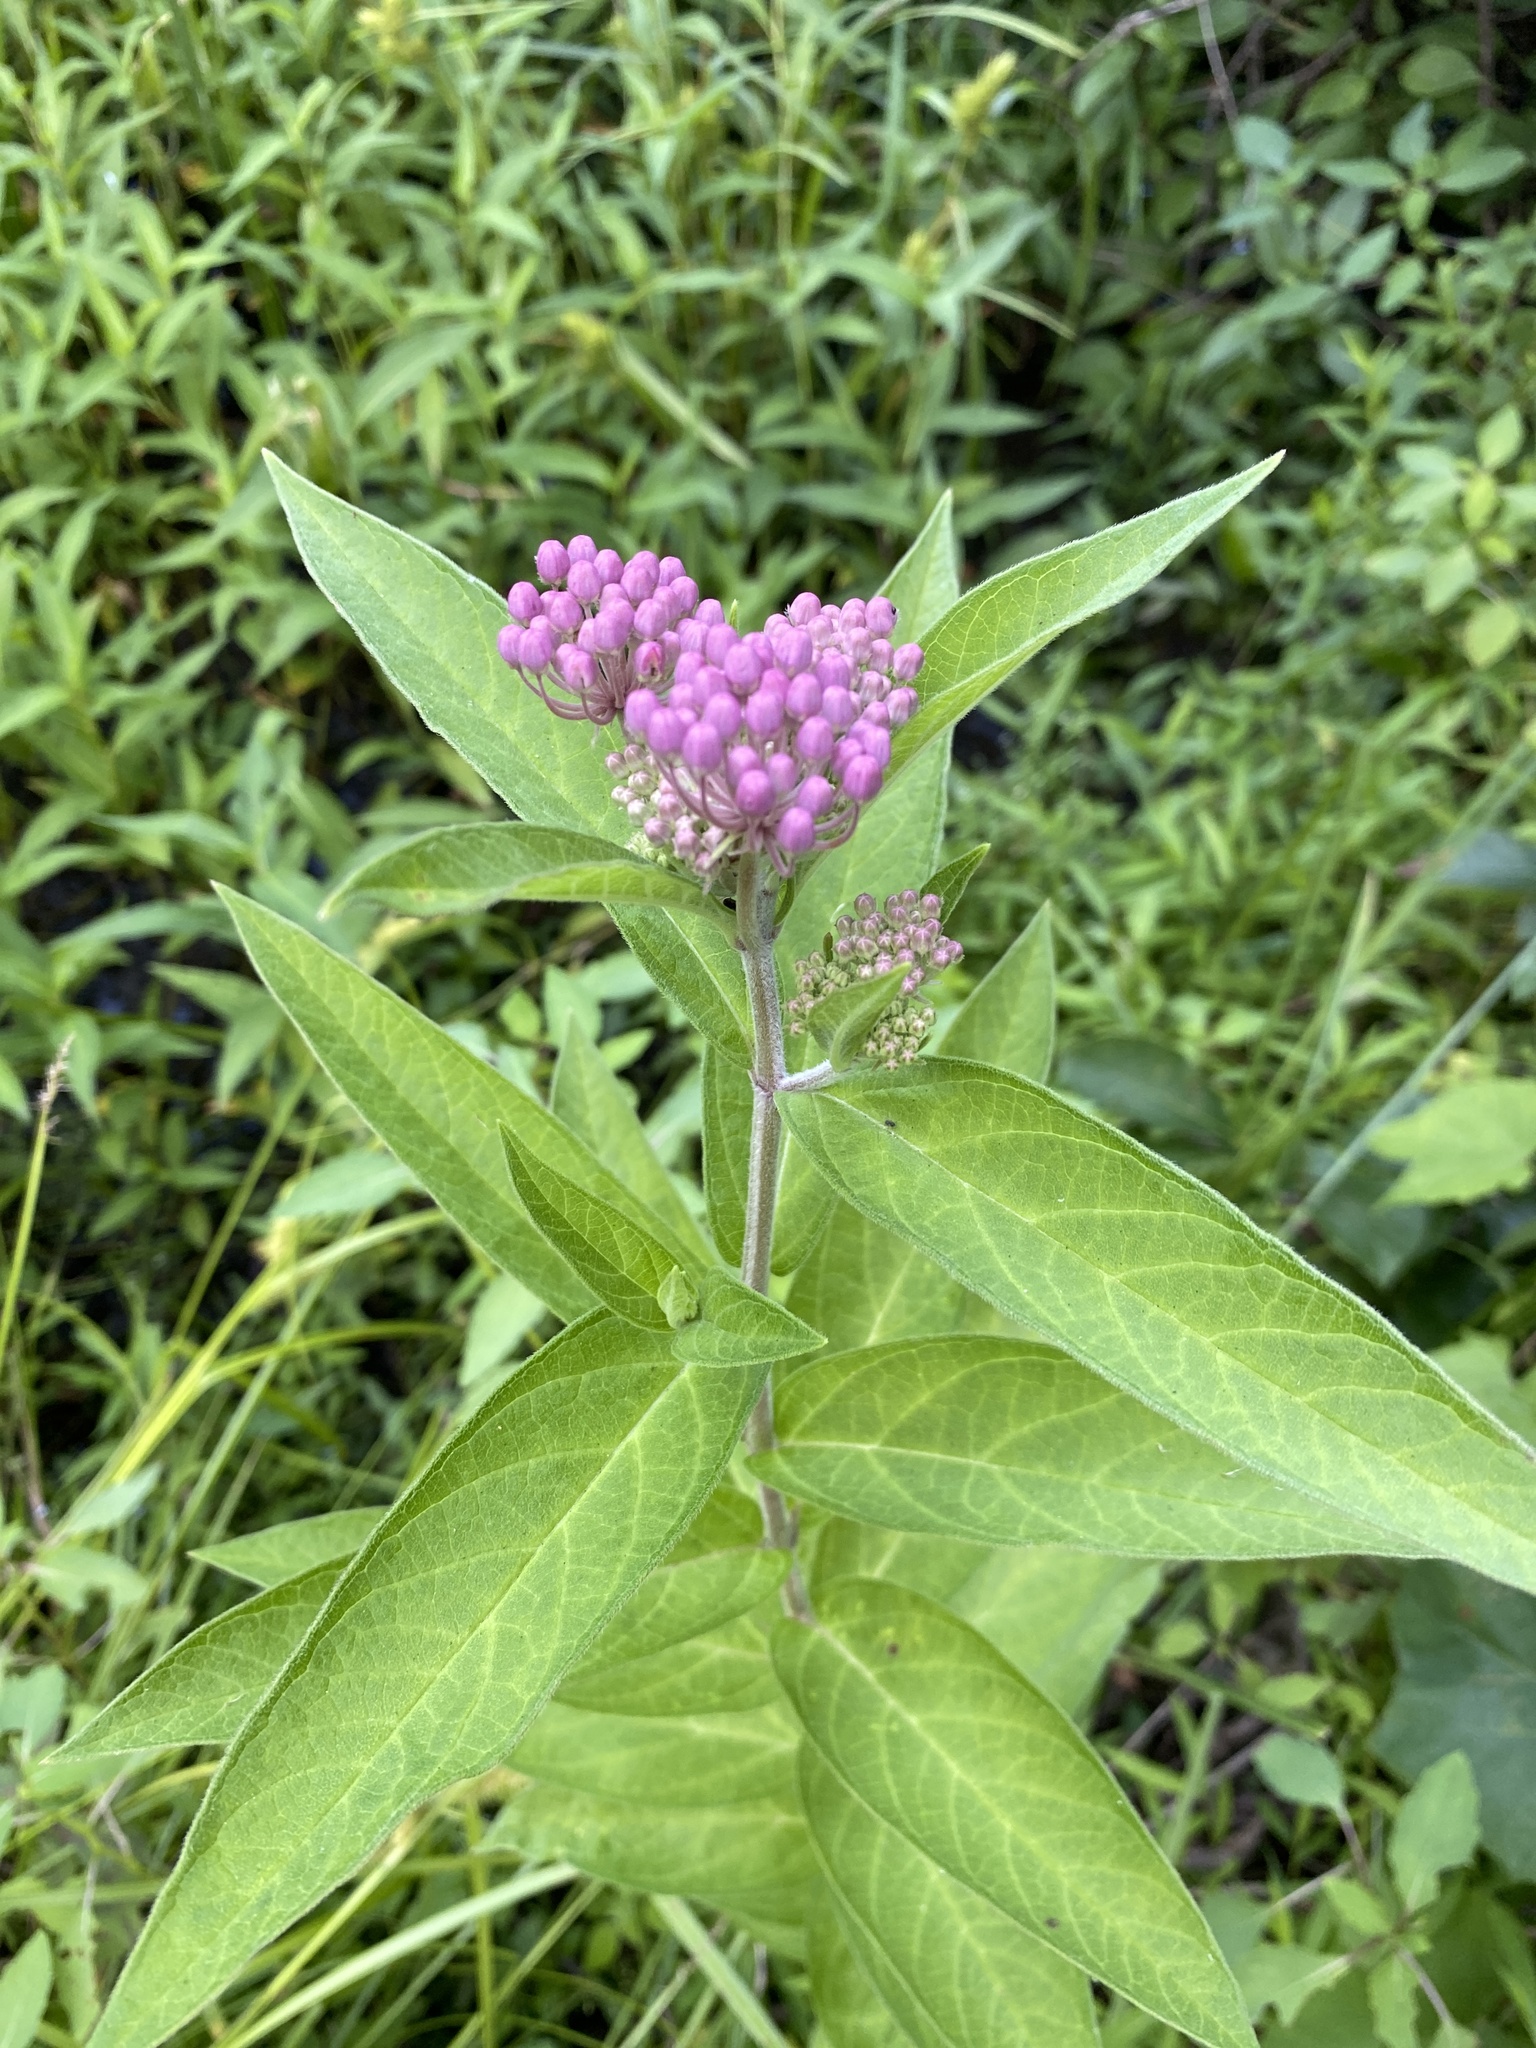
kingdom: Plantae
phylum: Tracheophyta
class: Magnoliopsida
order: Gentianales
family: Apocynaceae
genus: Asclepias
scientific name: Asclepias incarnata
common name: Swamp milkweed
